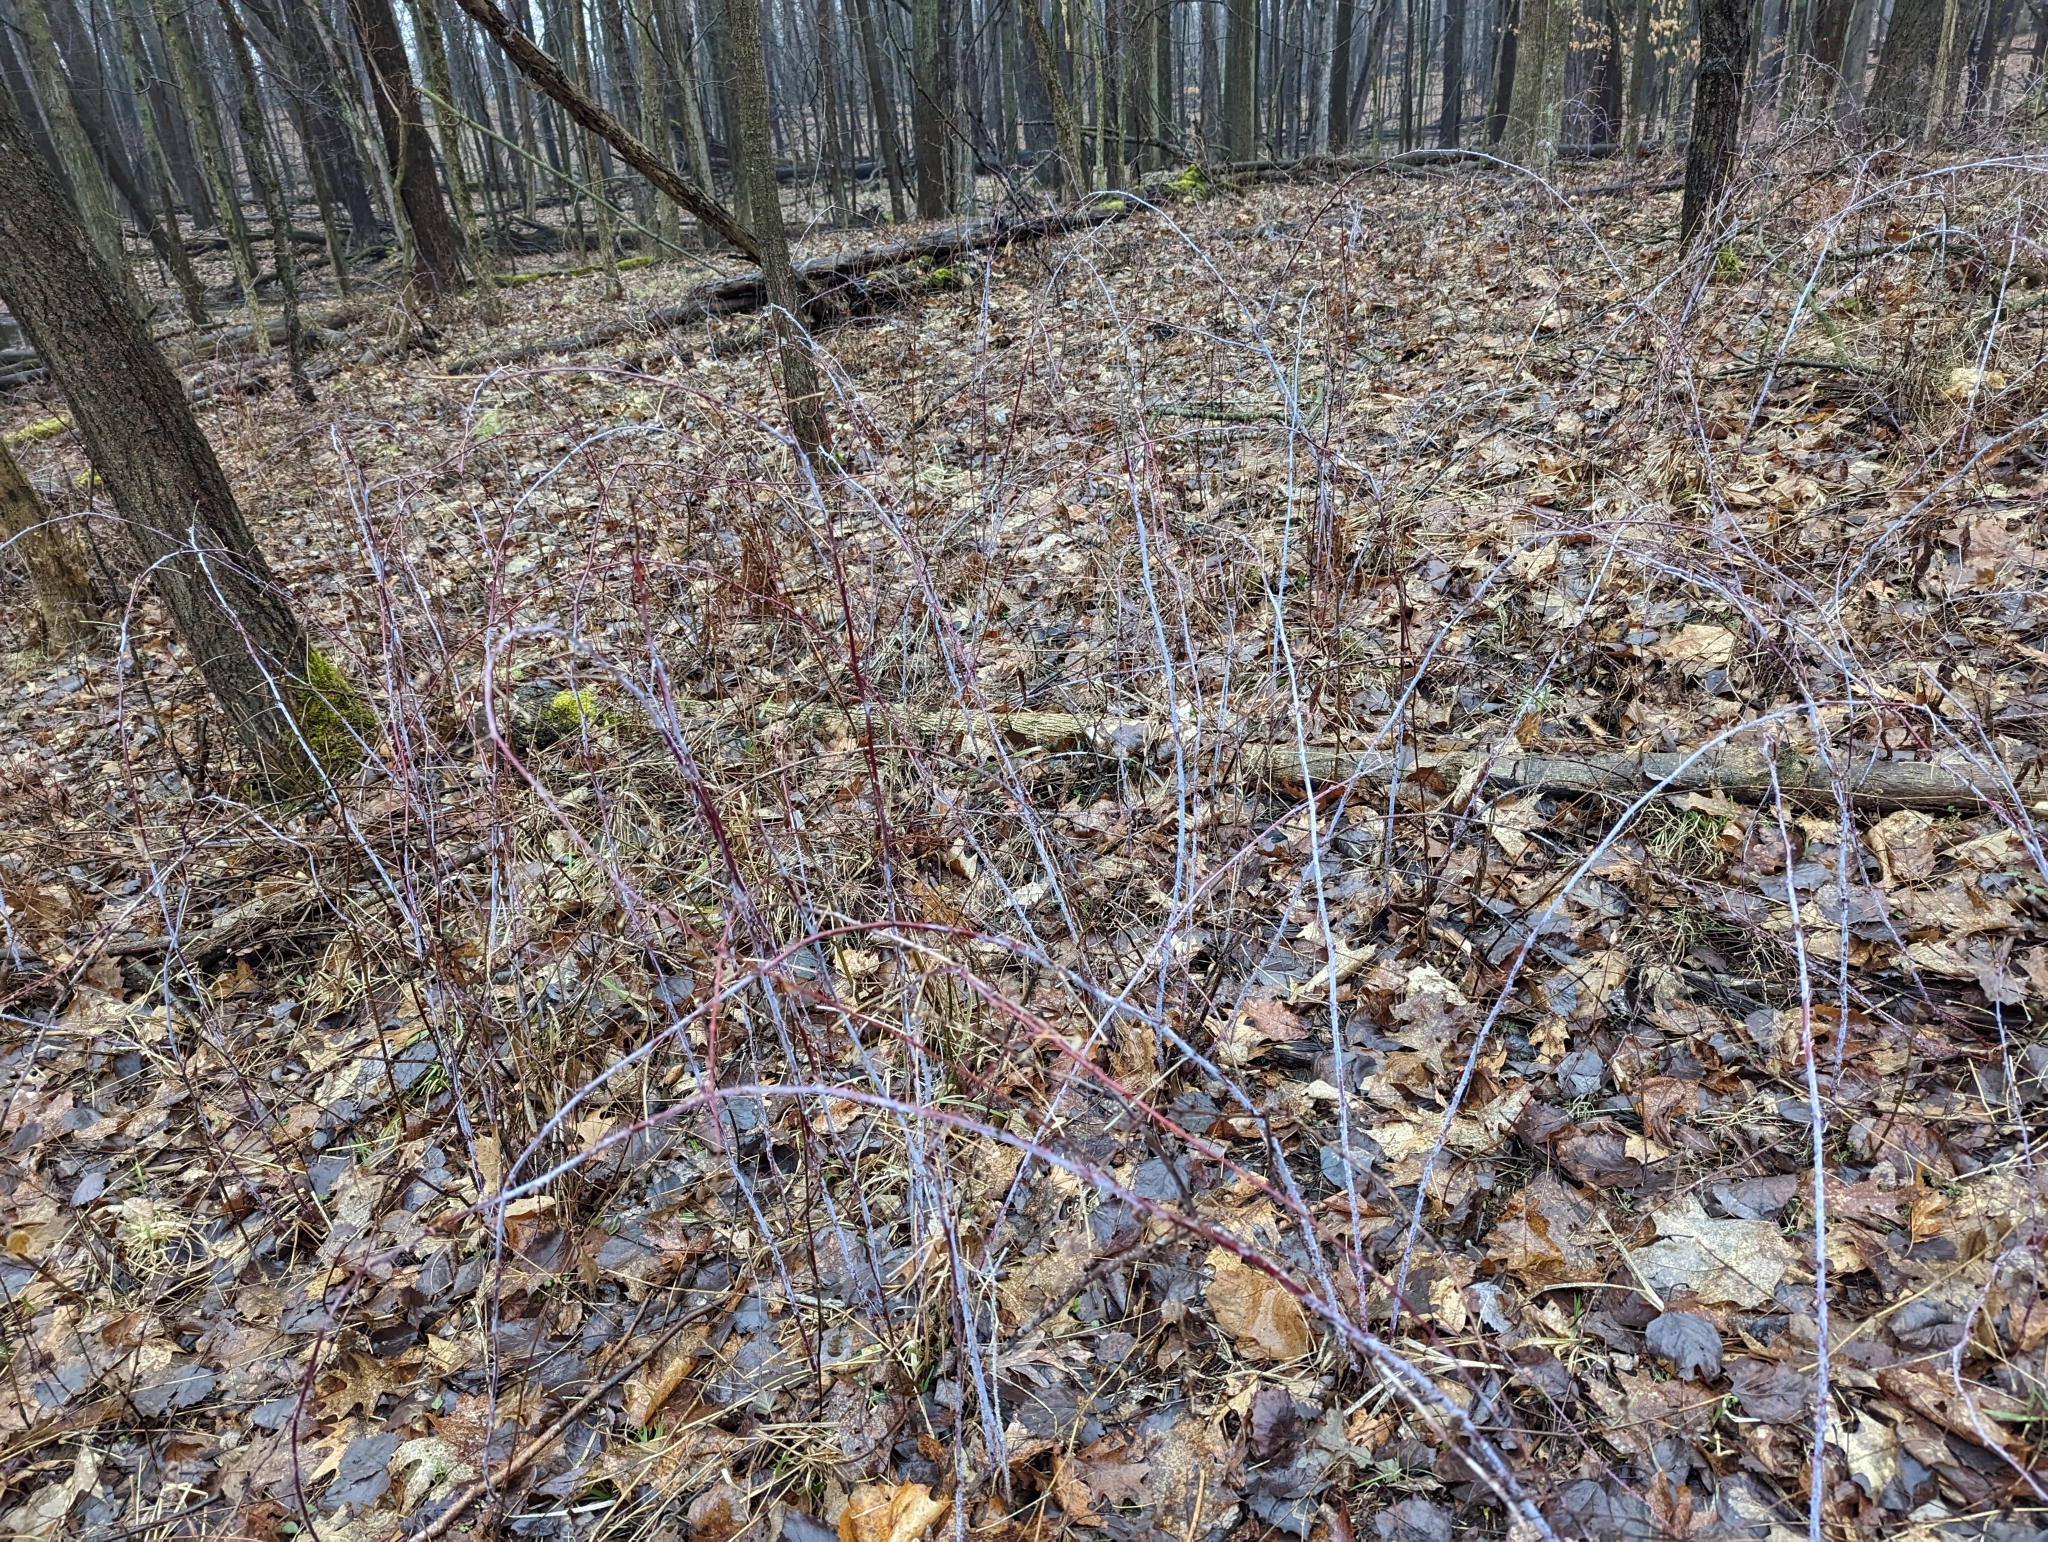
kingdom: Plantae
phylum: Tracheophyta
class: Magnoliopsida
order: Rosales
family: Rosaceae
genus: Rubus
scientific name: Rubus occidentalis
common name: Black raspberry
